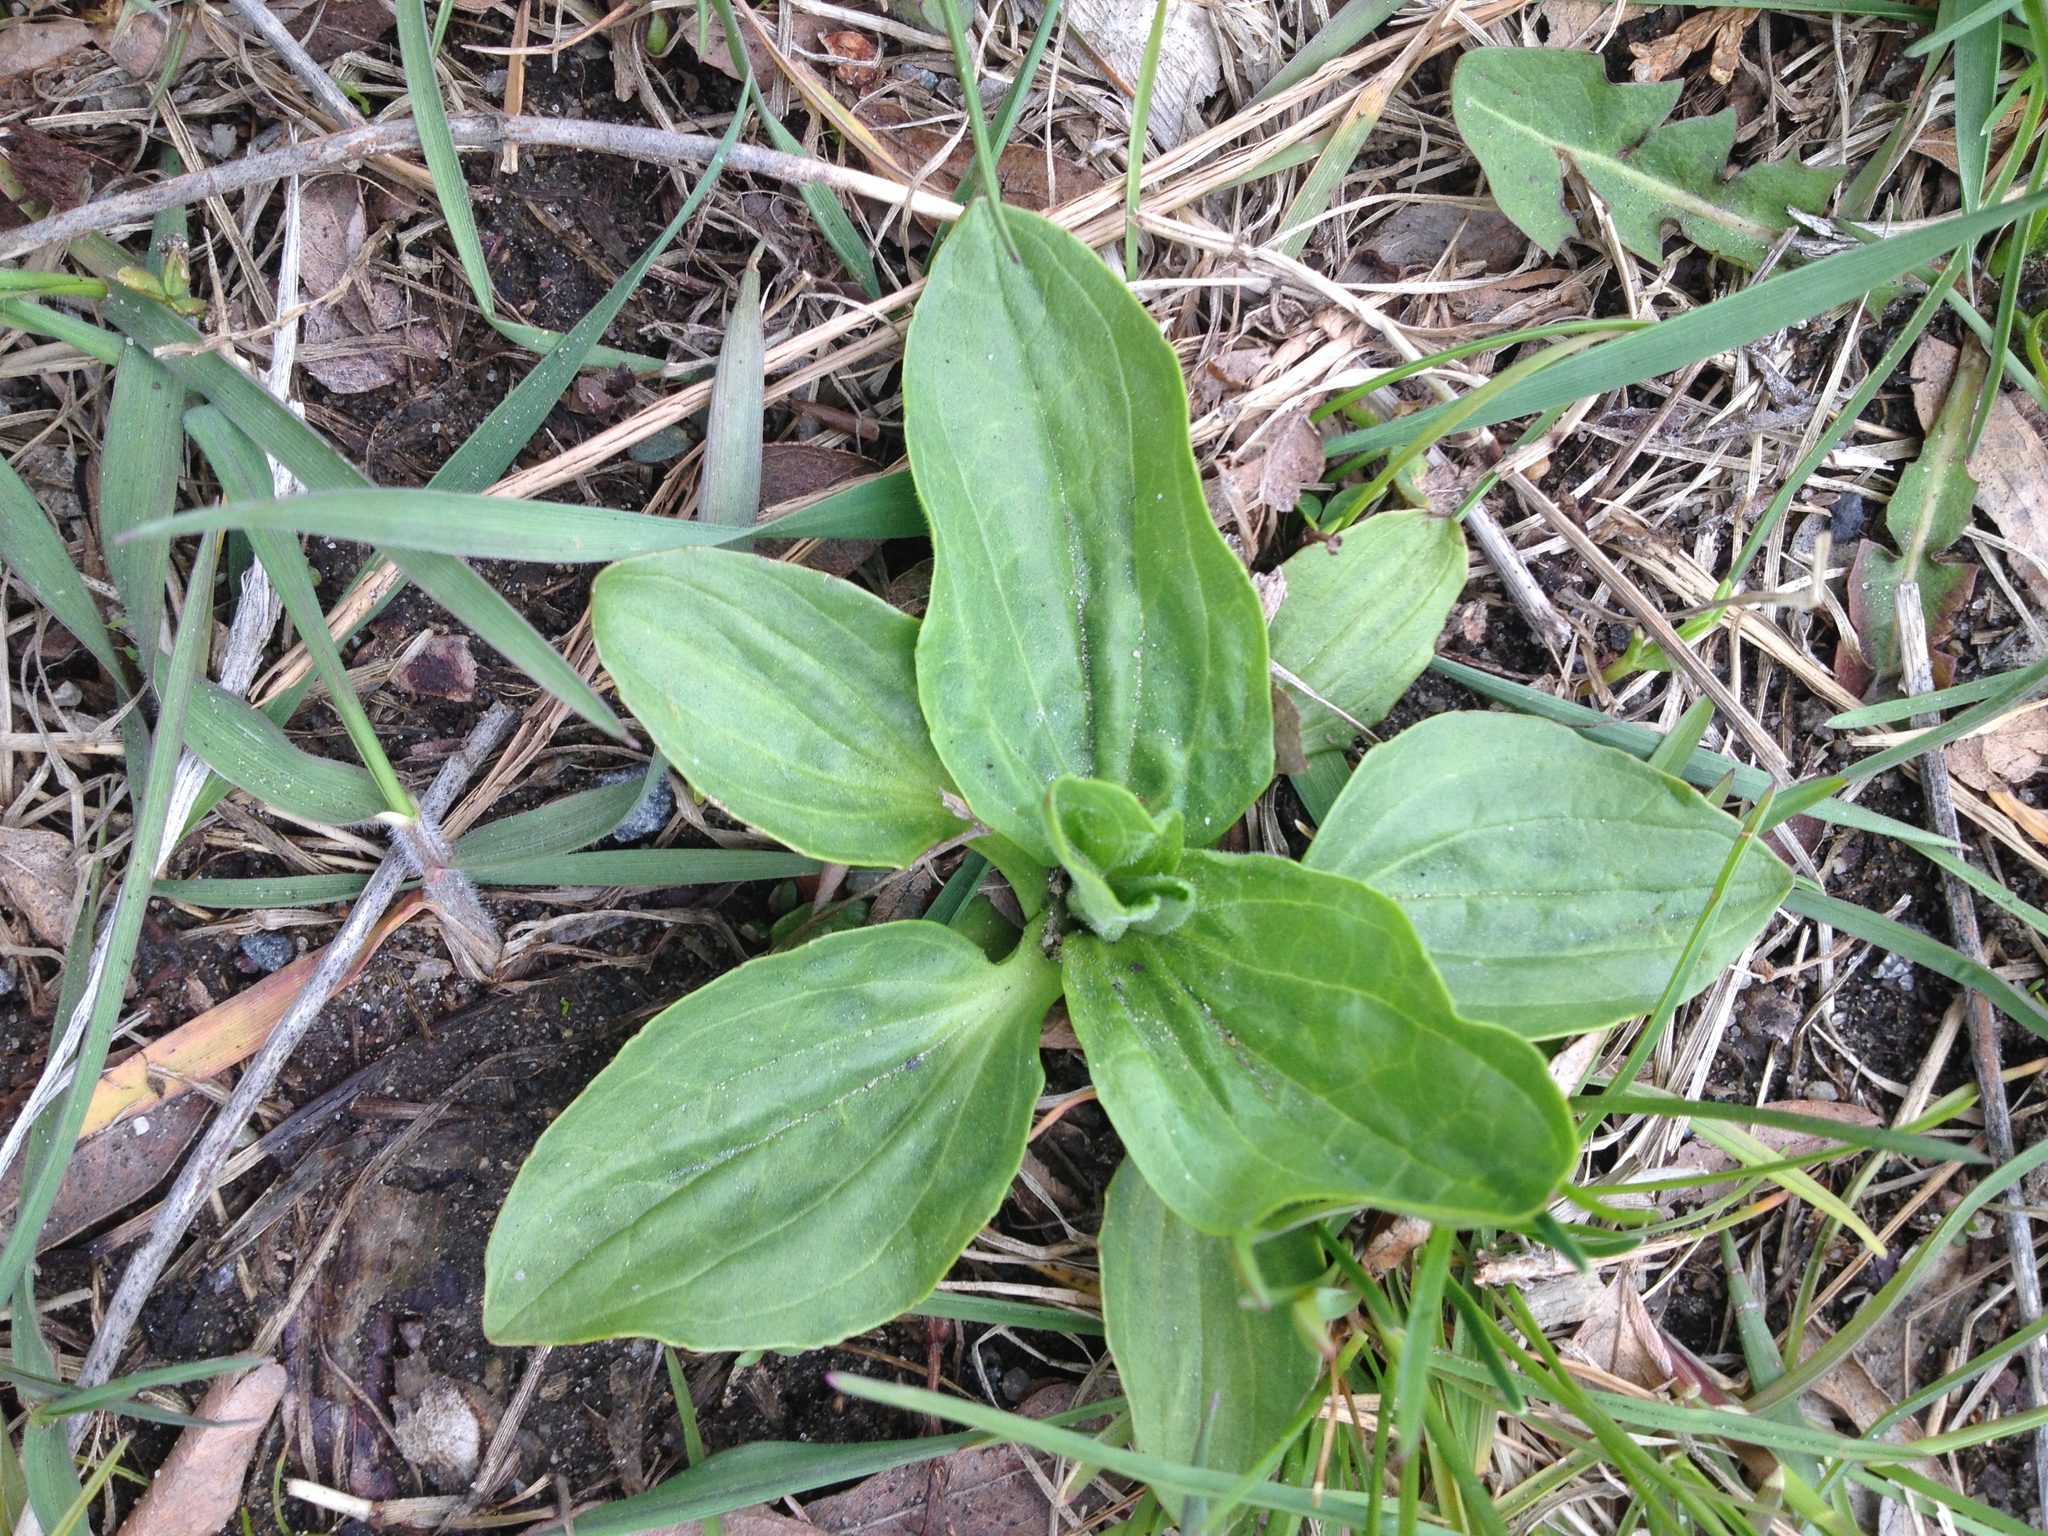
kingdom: Plantae
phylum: Tracheophyta
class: Magnoliopsida
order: Lamiales
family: Plantaginaceae
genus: Plantago
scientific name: Plantago major
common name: Common plantain
